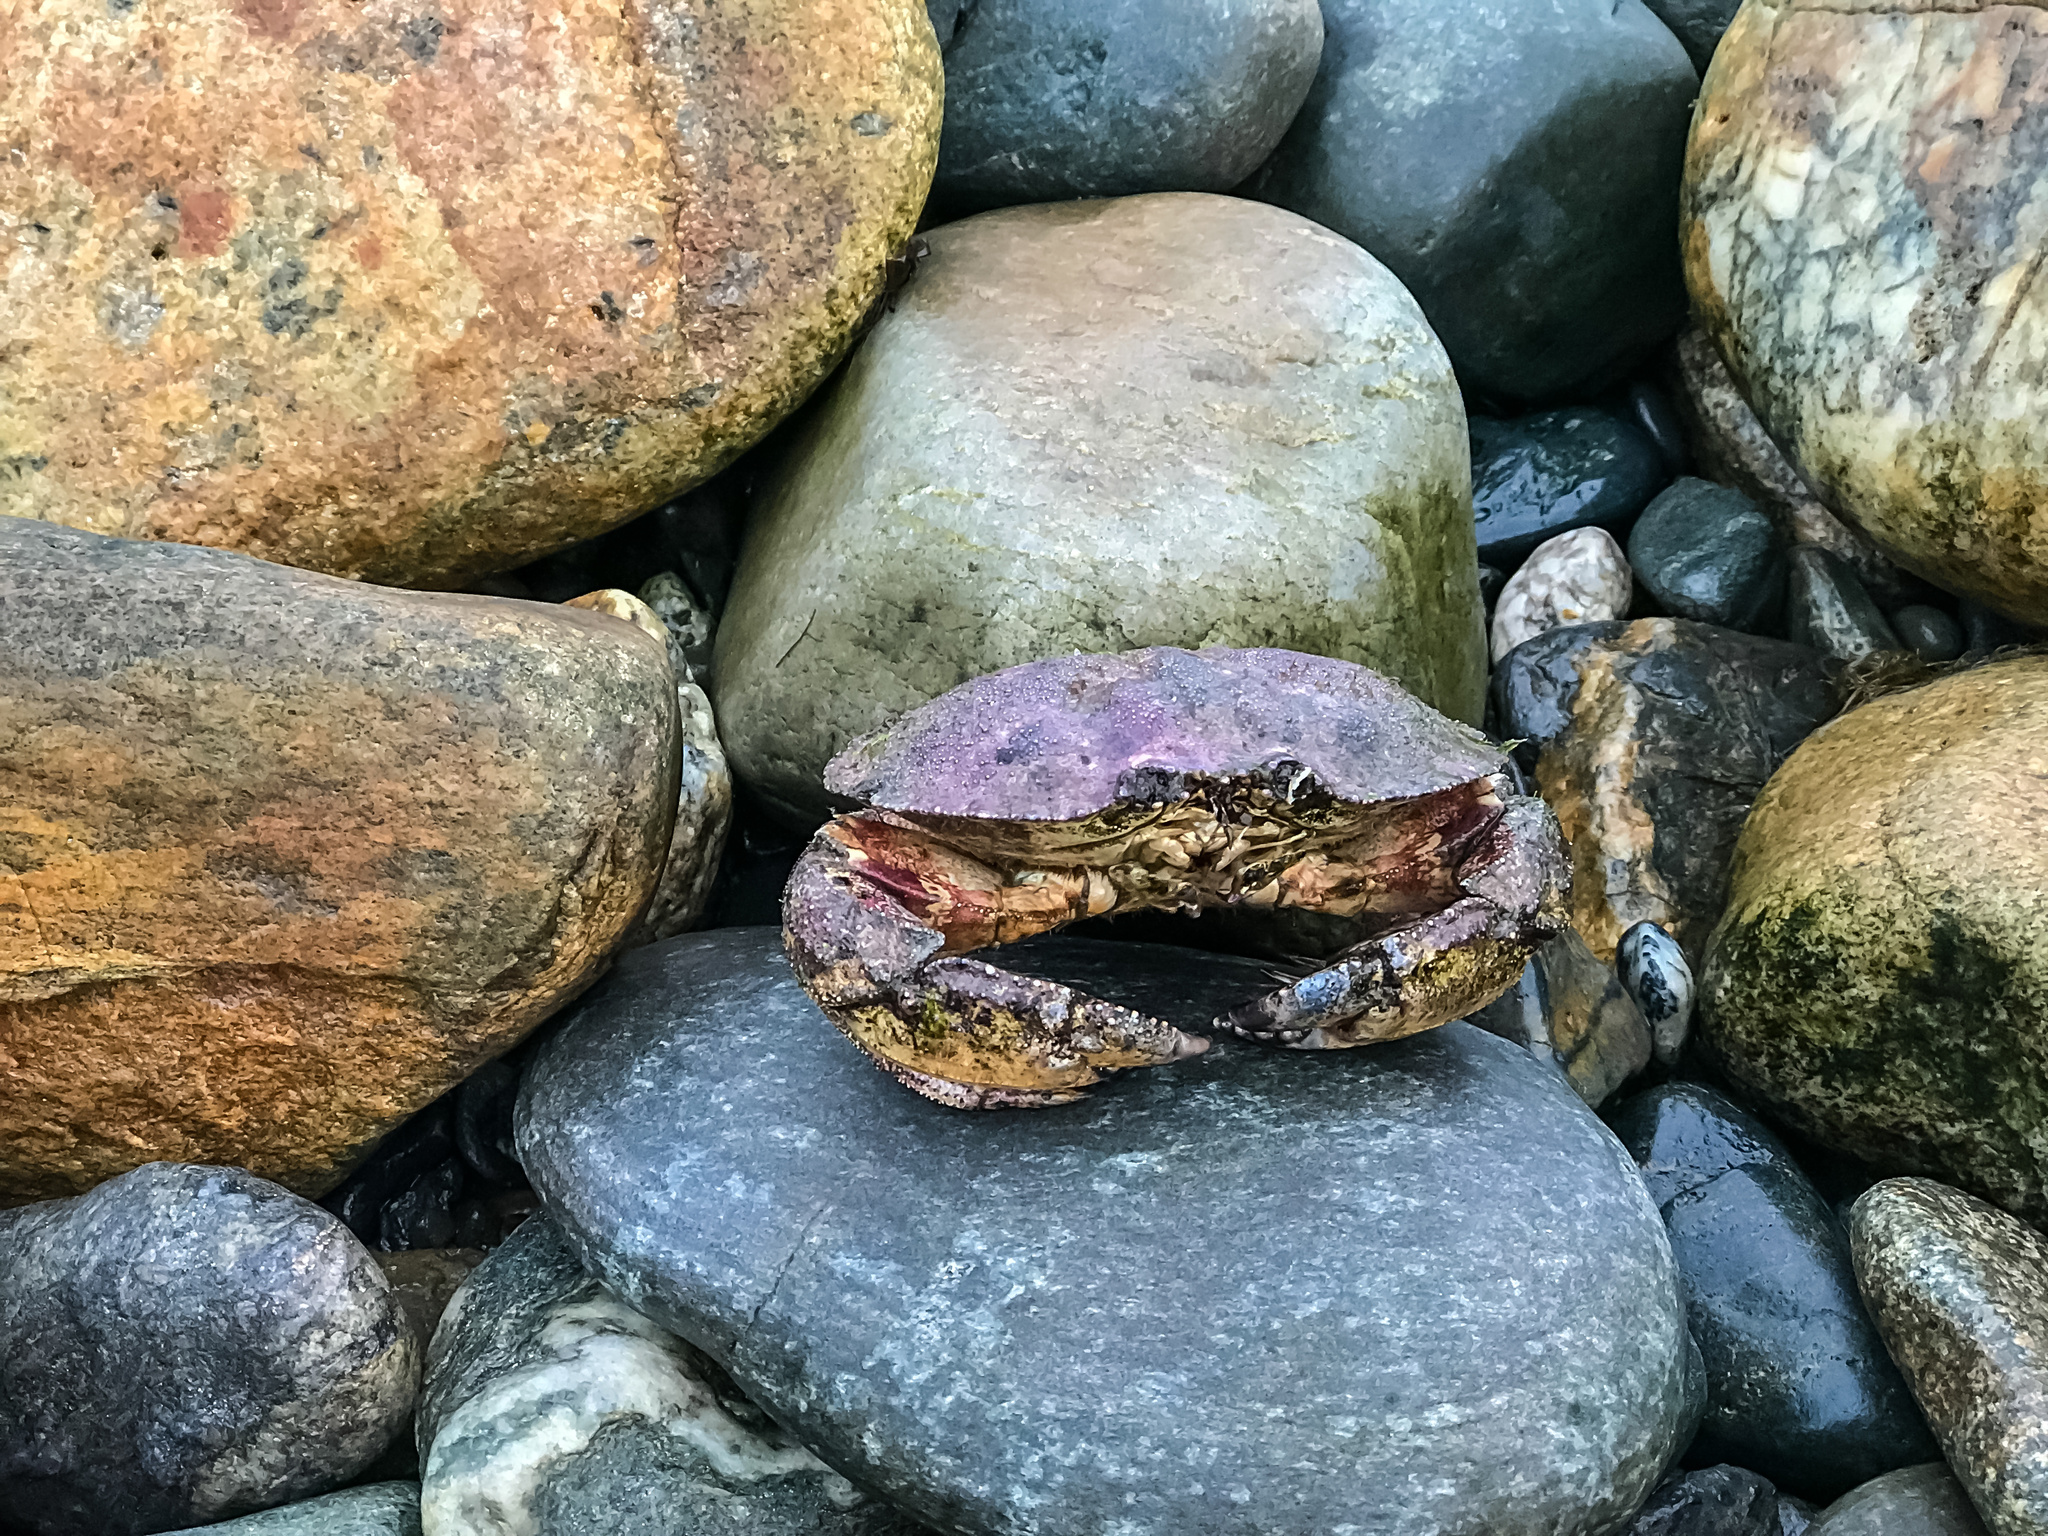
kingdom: Animalia
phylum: Arthropoda
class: Malacostraca
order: Decapoda
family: Cancridae
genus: Cancer
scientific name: Cancer borealis
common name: Jonah crab
